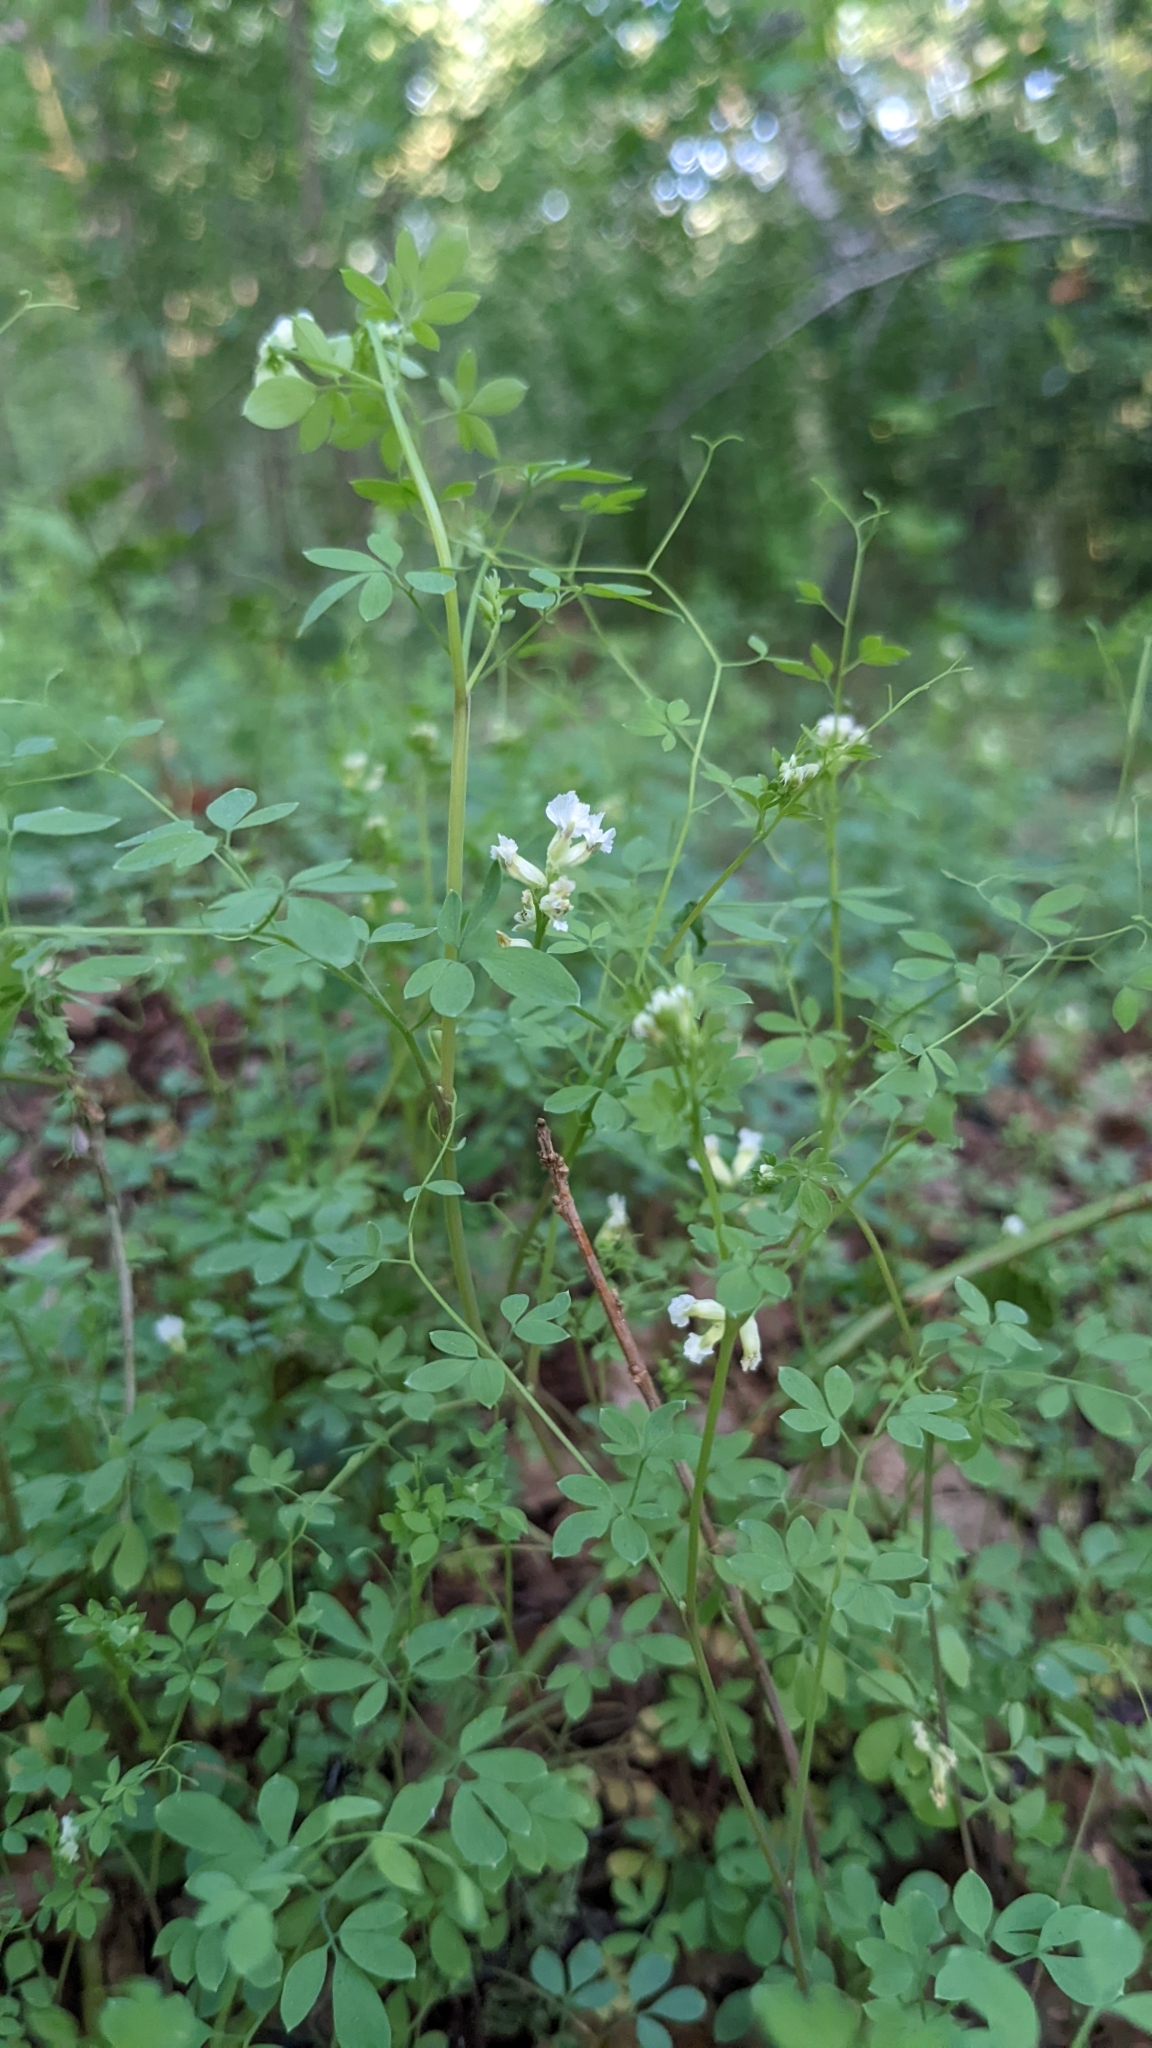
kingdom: Plantae
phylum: Tracheophyta
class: Magnoliopsida
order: Ranunculales
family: Papaveraceae
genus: Ceratocapnos
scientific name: Ceratocapnos claviculata
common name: Climbing corydalis
